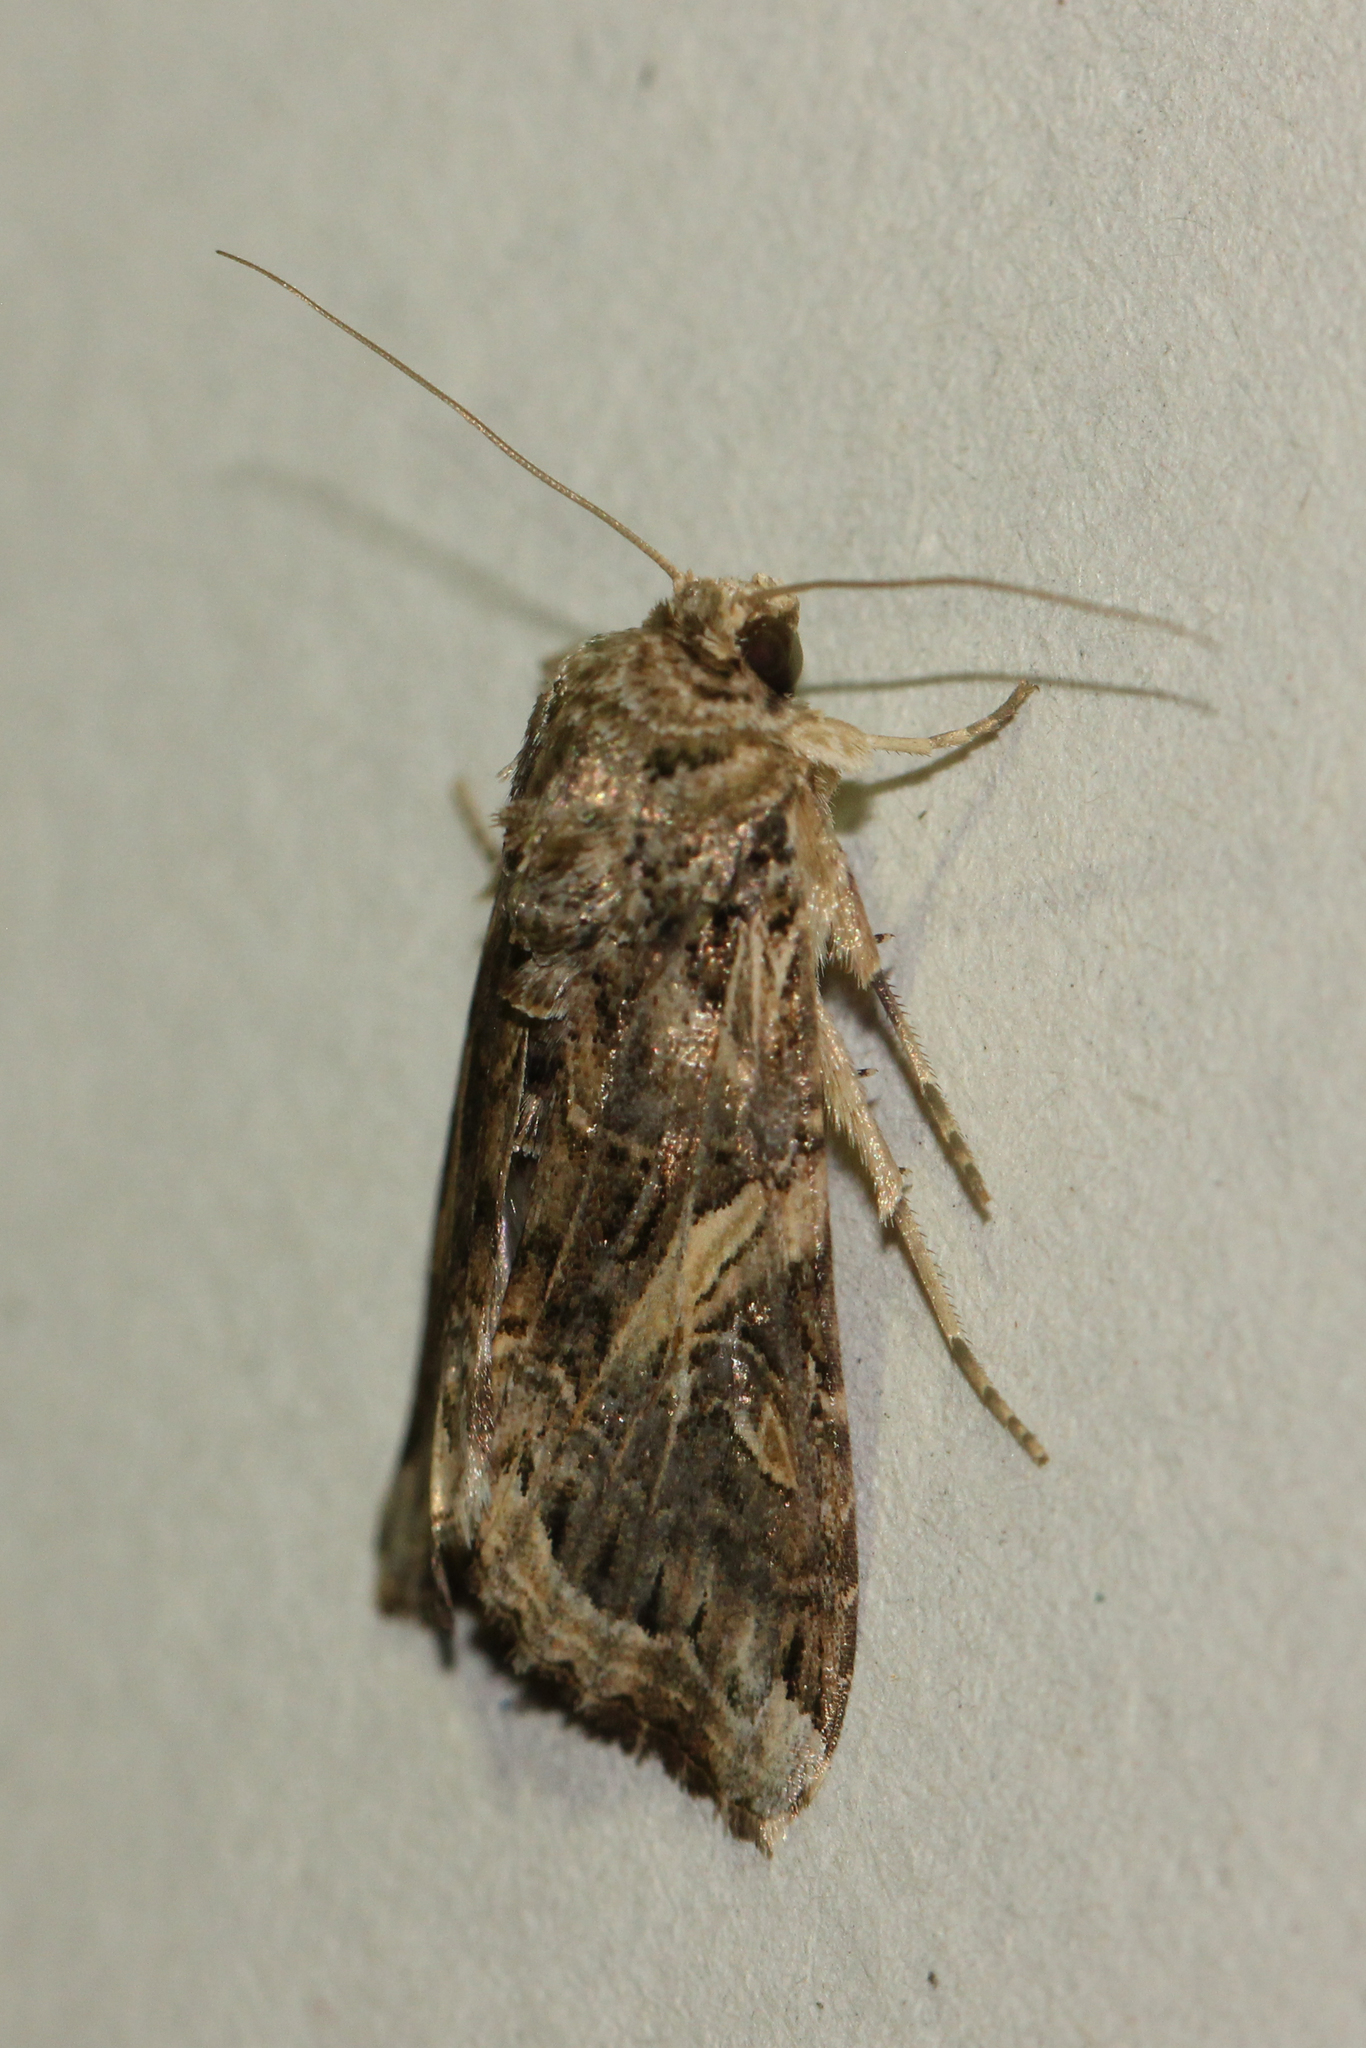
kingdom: Animalia
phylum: Arthropoda
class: Insecta
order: Lepidoptera
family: Noctuidae
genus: Spodoptera
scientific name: Spodoptera ornithogalli
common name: Yellow-striped armyworm
